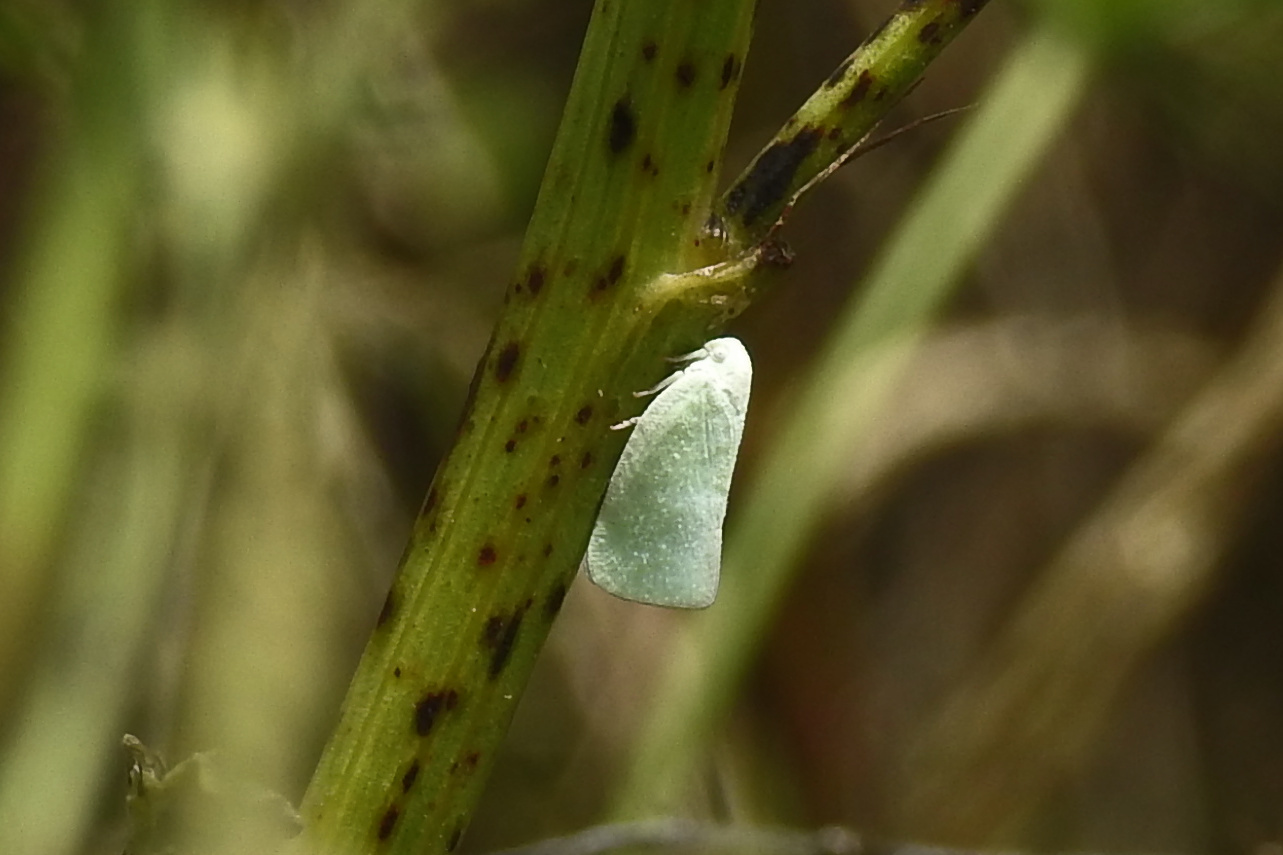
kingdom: Animalia
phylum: Arthropoda
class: Insecta
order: Hemiptera
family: Flatidae
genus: Flatormenis
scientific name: Flatormenis proxima
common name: Northern flatid planthopper
